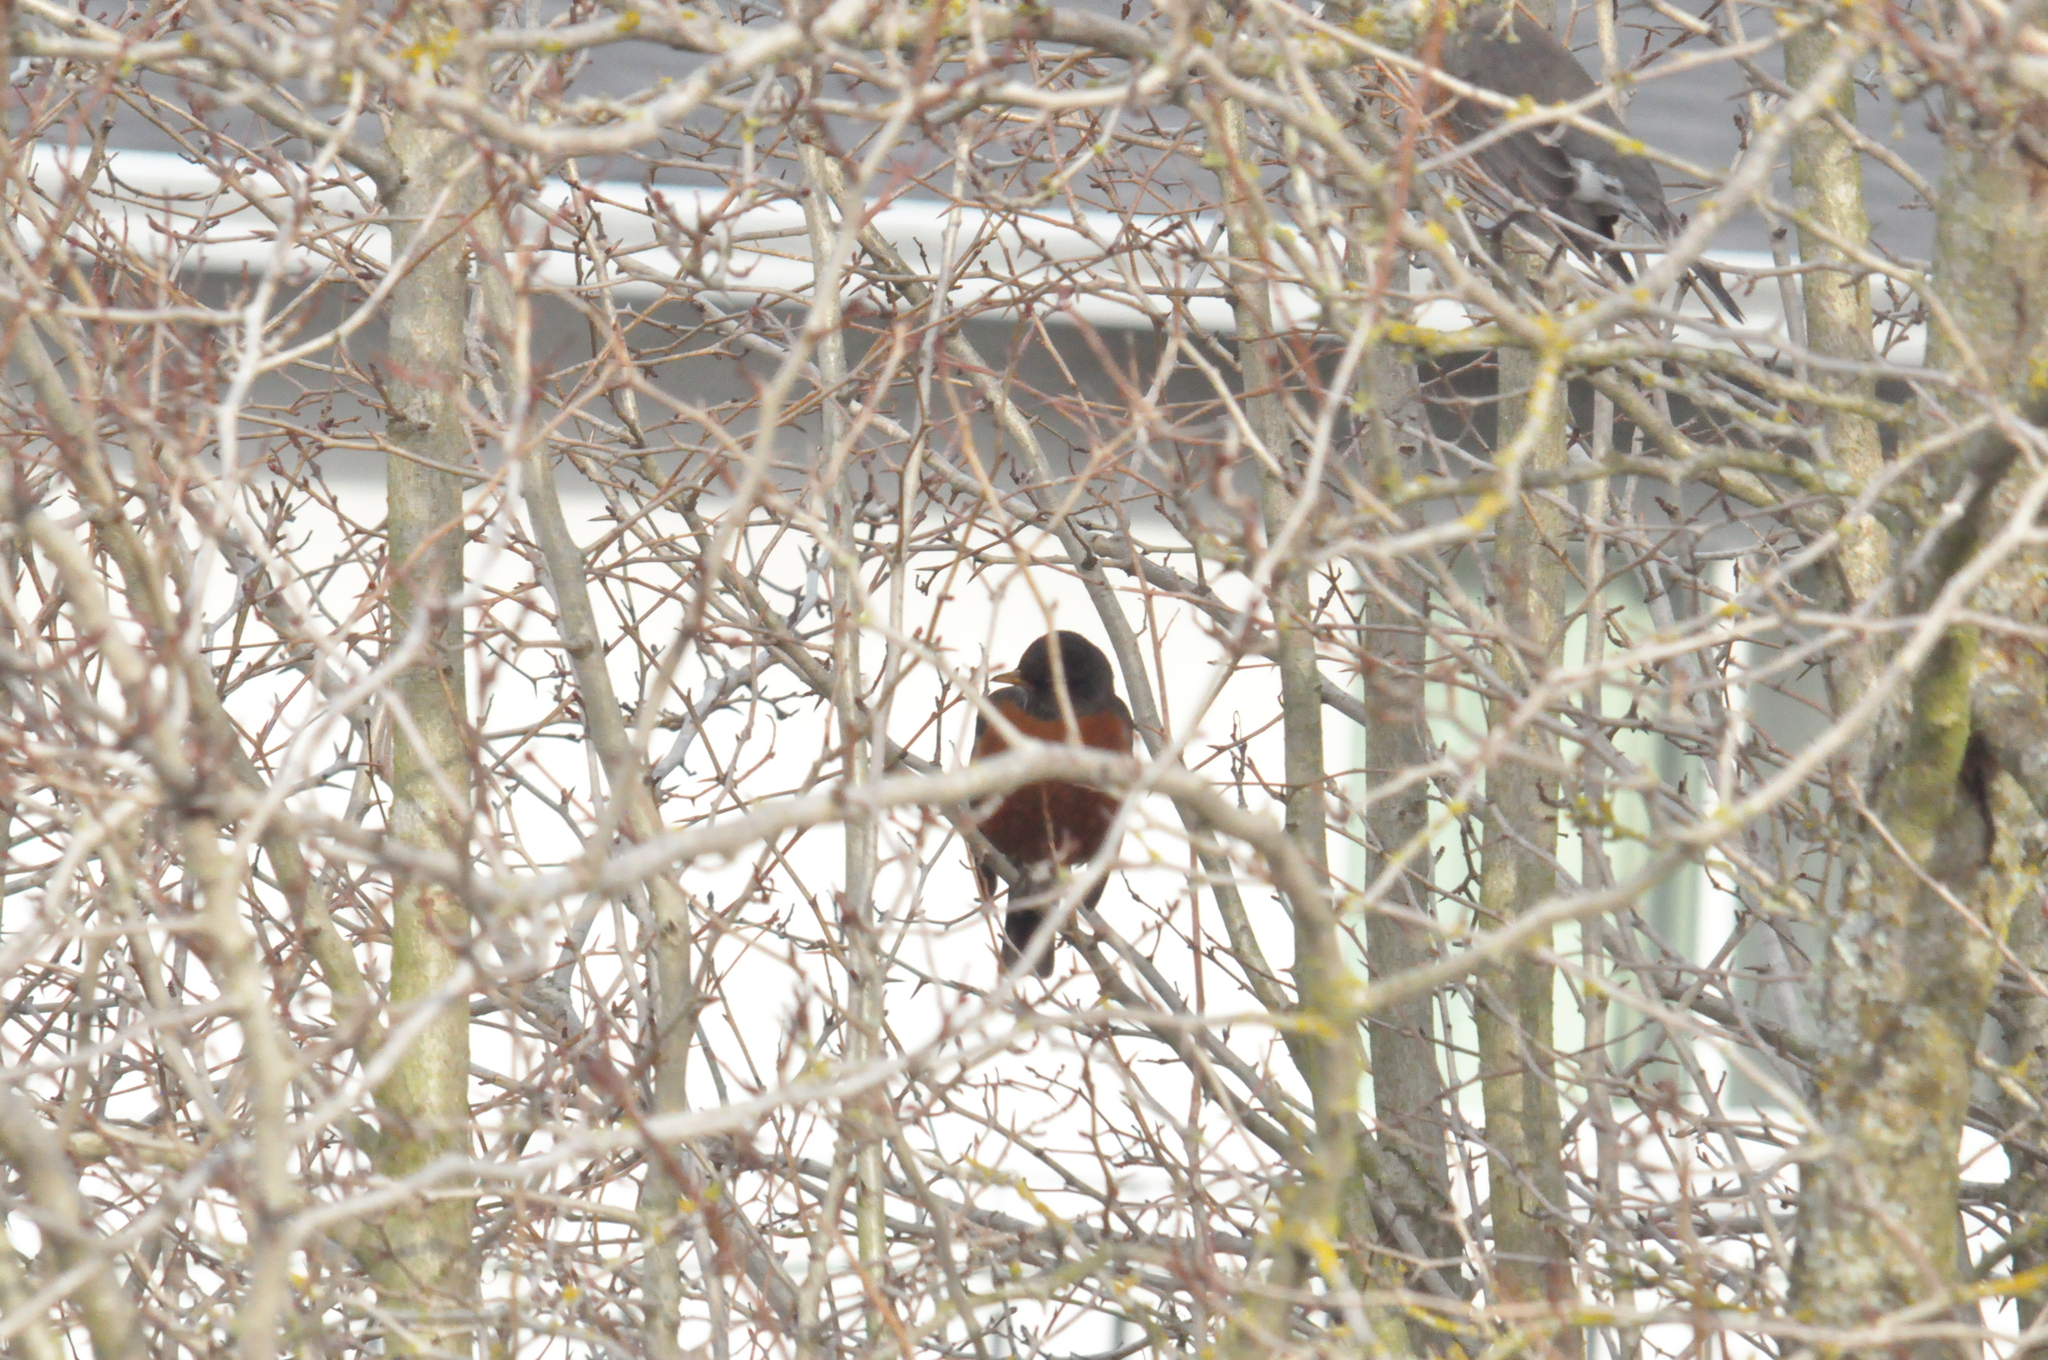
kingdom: Animalia
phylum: Chordata
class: Aves
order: Passeriformes
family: Turdidae
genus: Turdus
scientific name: Turdus migratorius
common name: American robin
